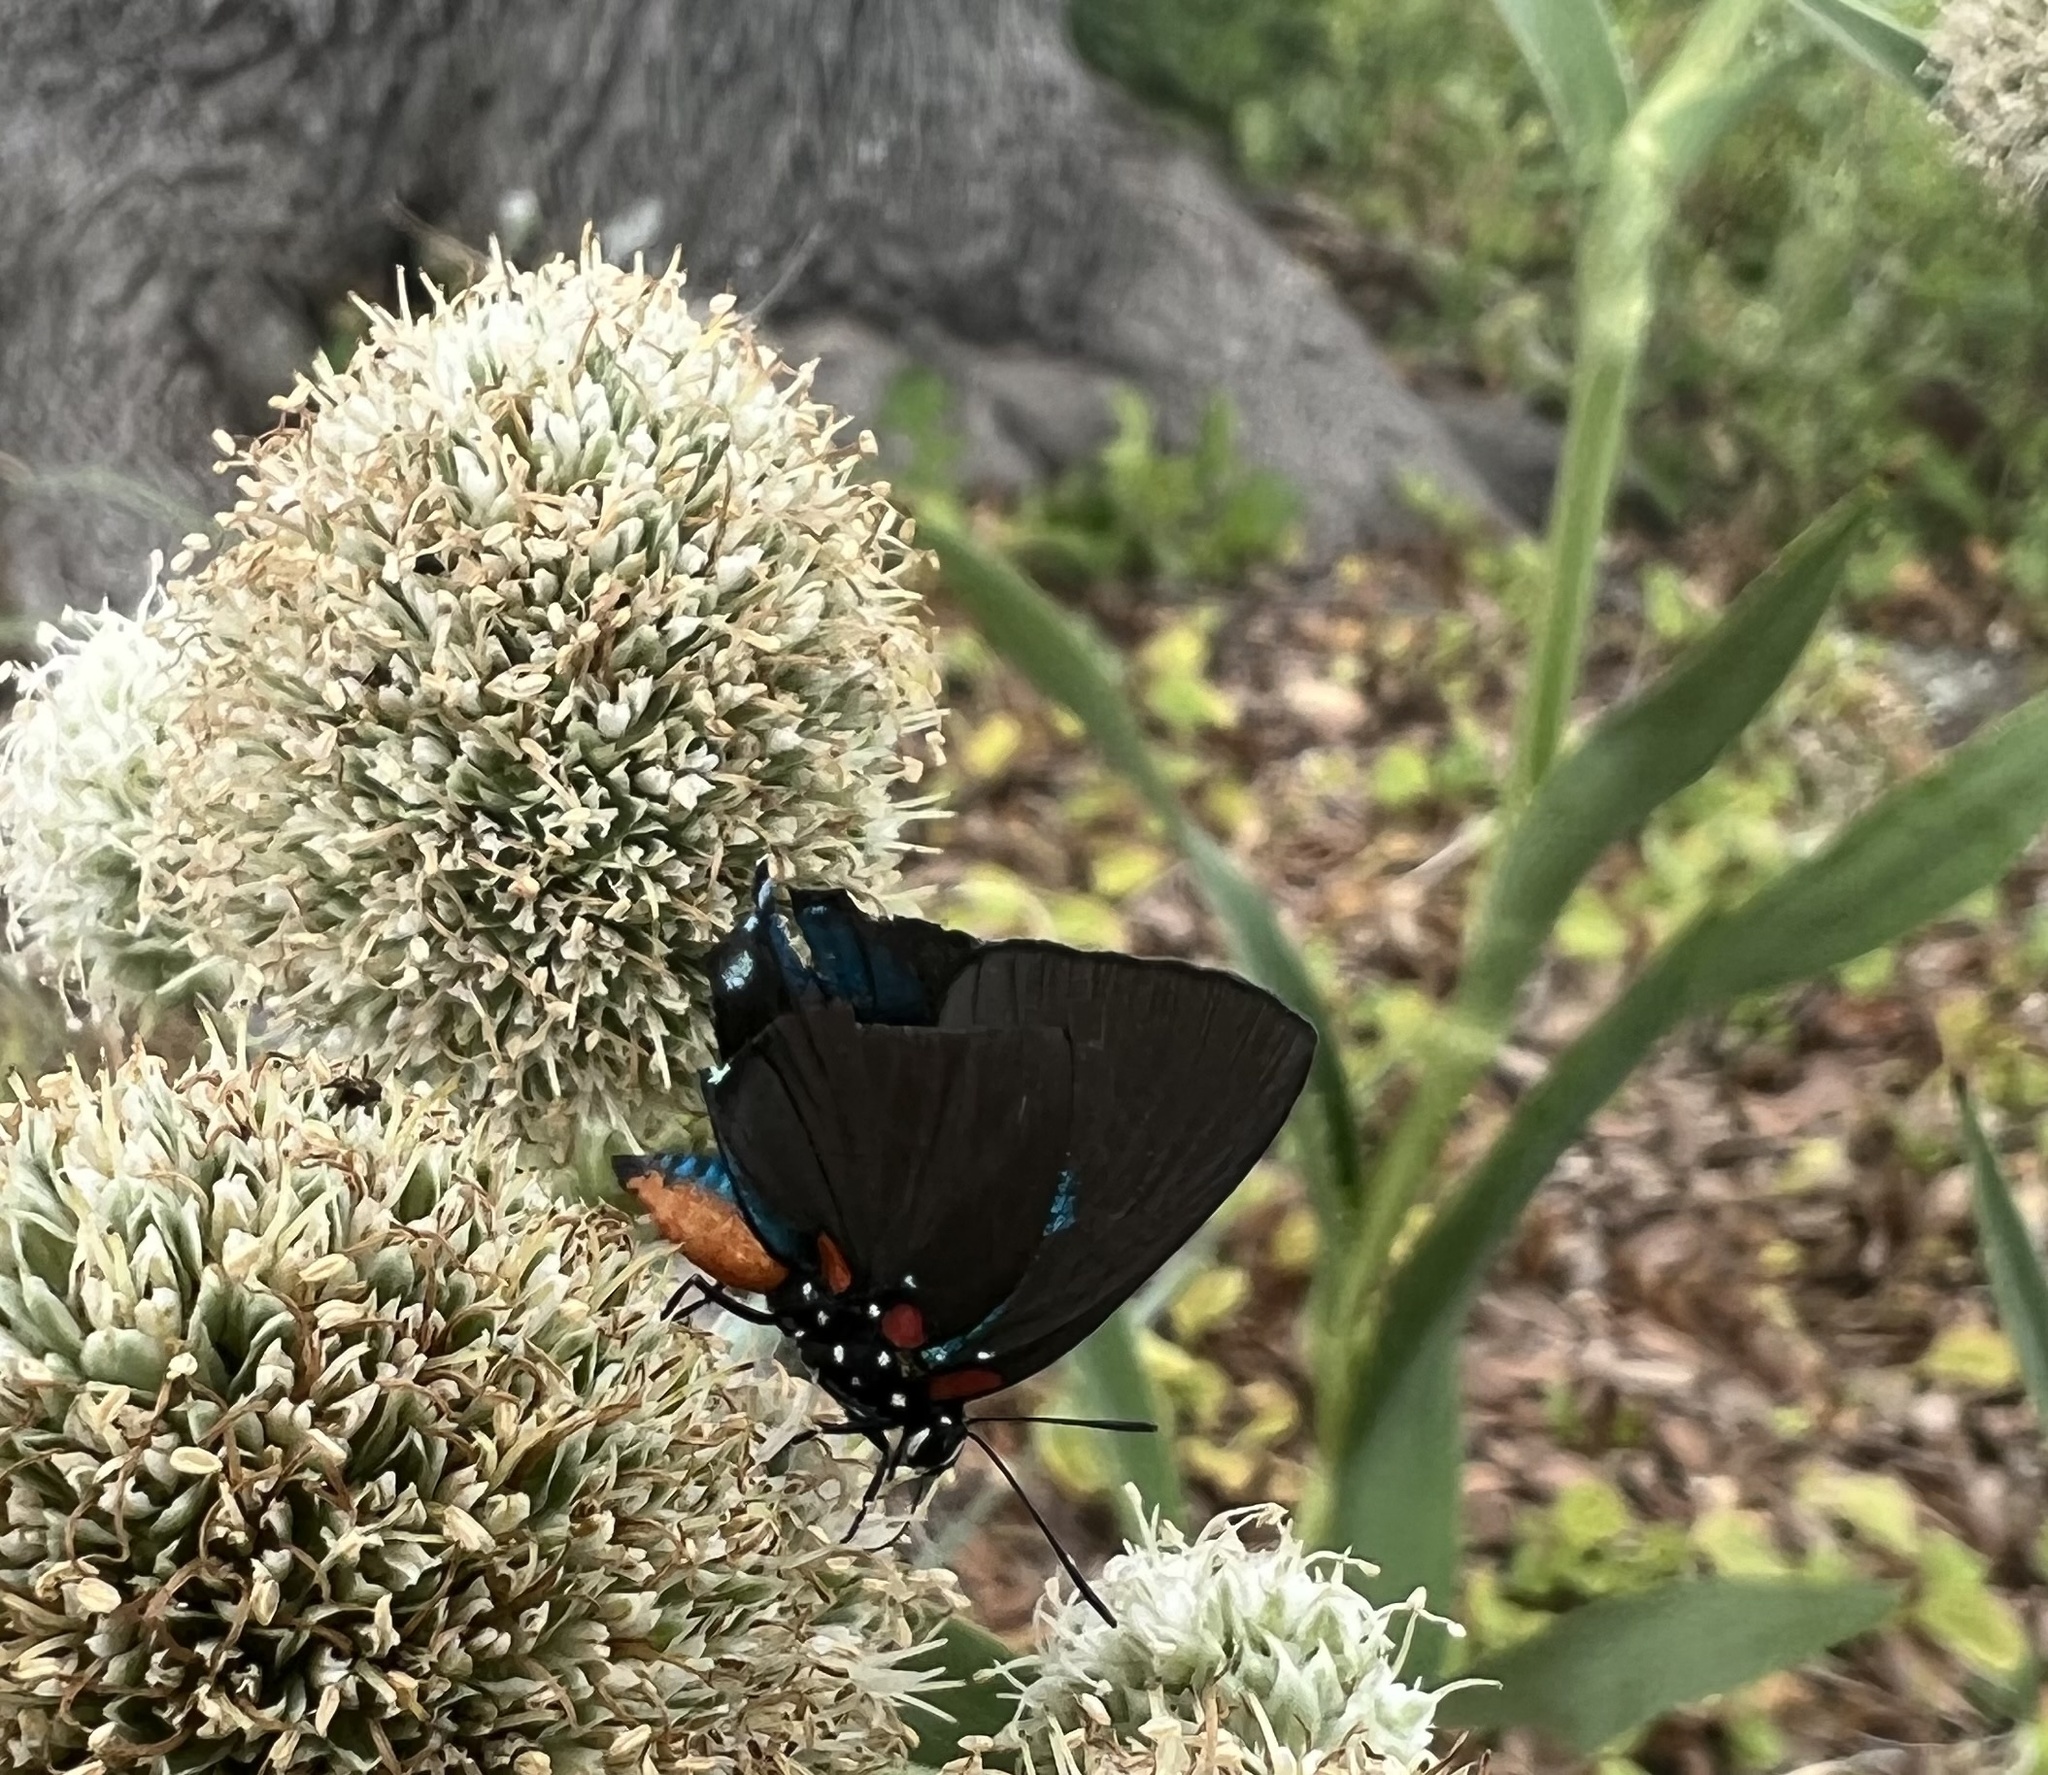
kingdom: Animalia
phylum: Arthropoda
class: Insecta
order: Lepidoptera
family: Lycaenidae
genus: Atlides
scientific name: Atlides halesus
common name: Great purple hairstreak
